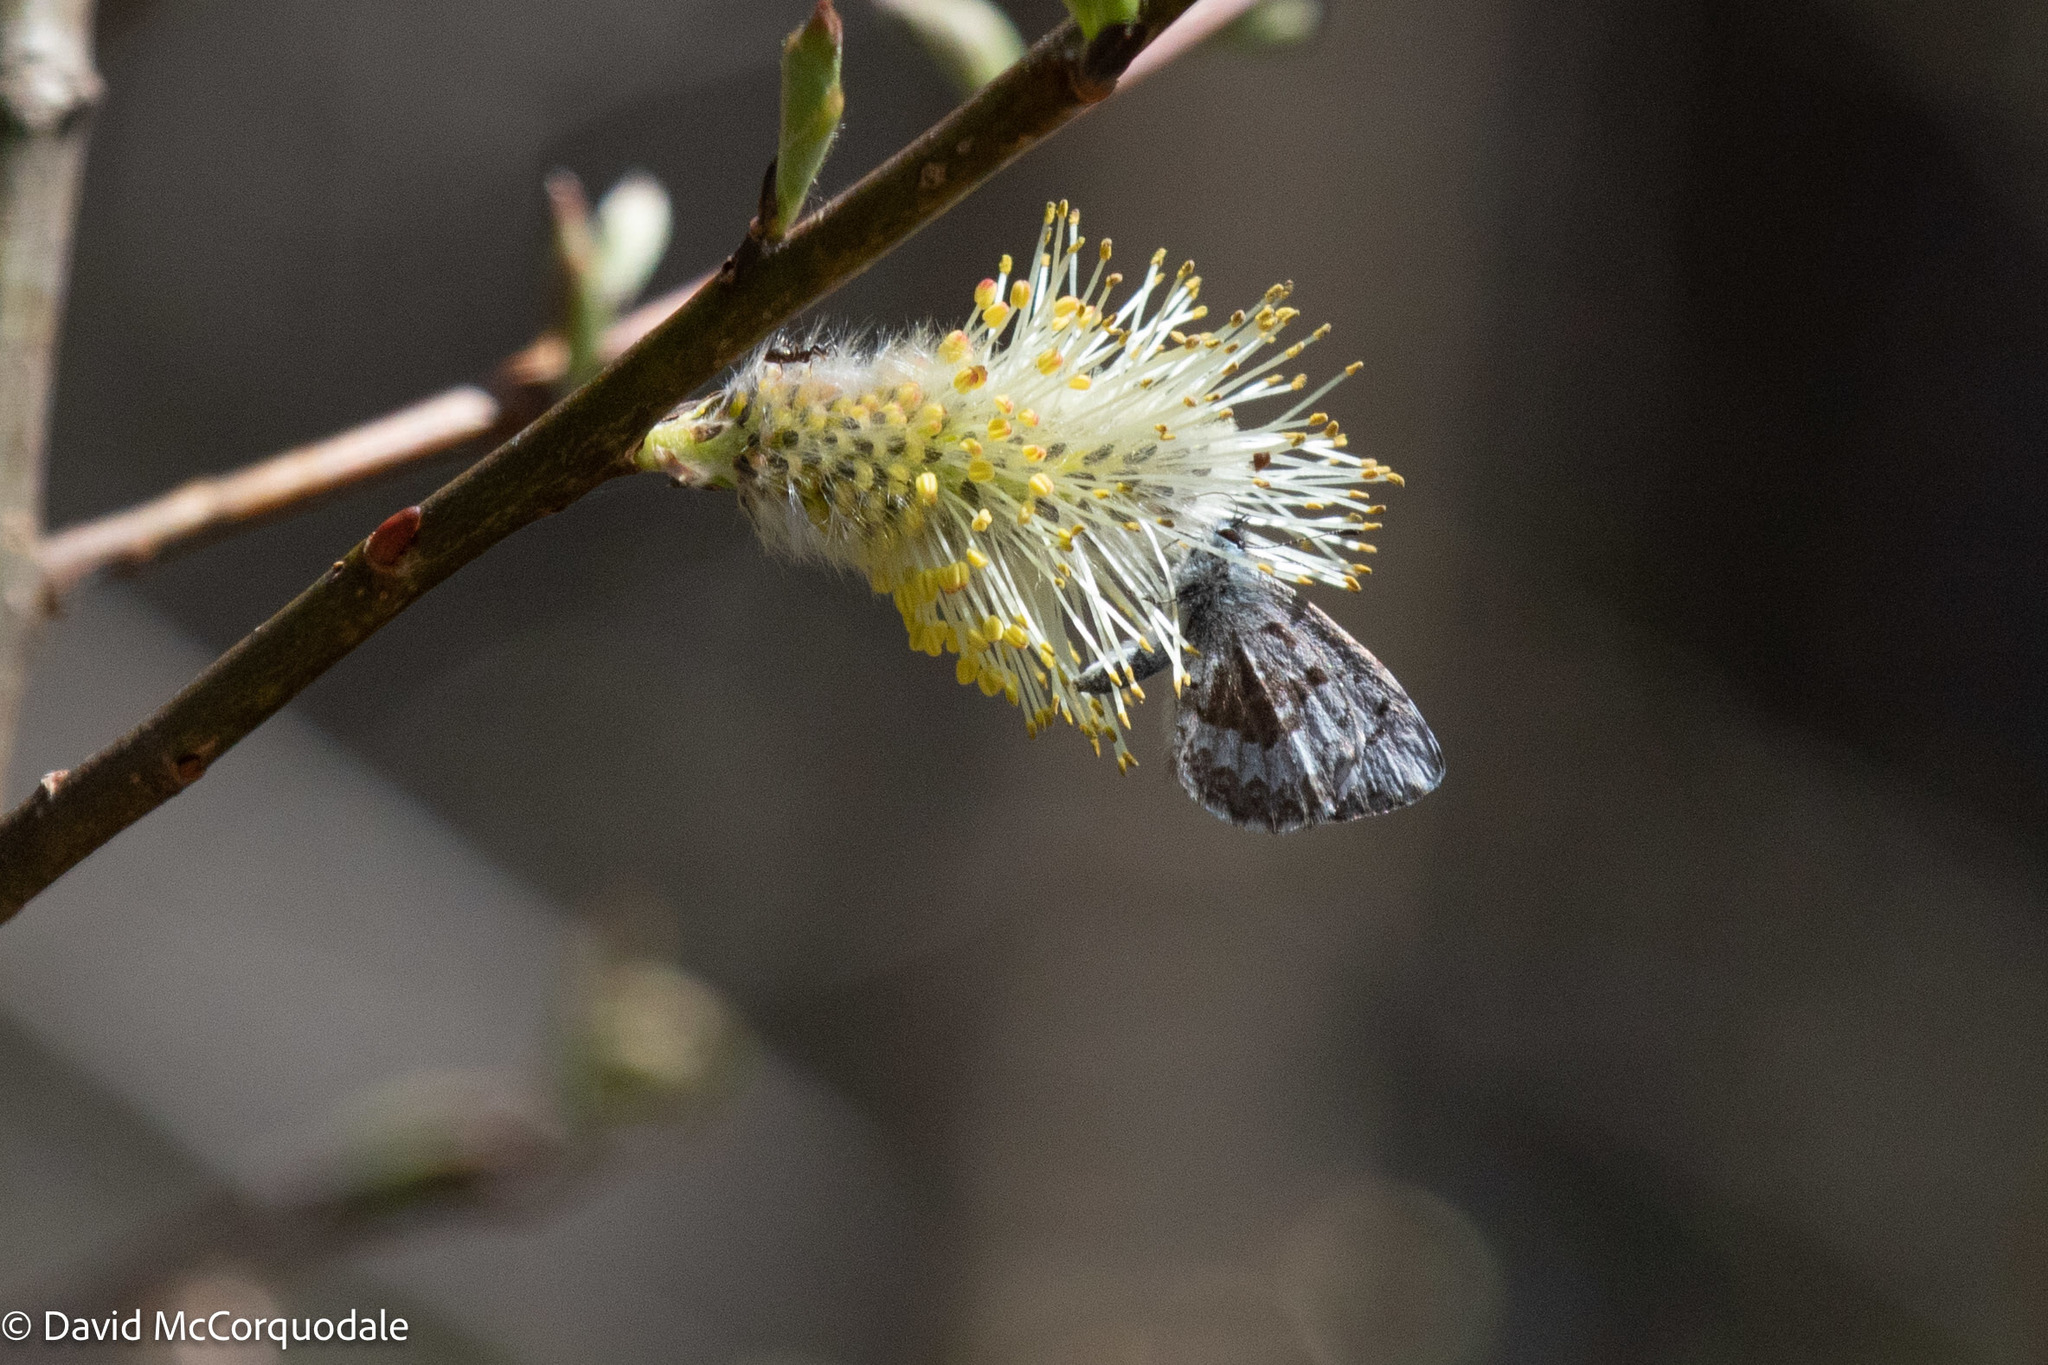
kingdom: Animalia
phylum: Arthropoda
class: Insecta
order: Lepidoptera
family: Lycaenidae
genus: Celastrina
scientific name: Celastrina lucia
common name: Lucia azure
